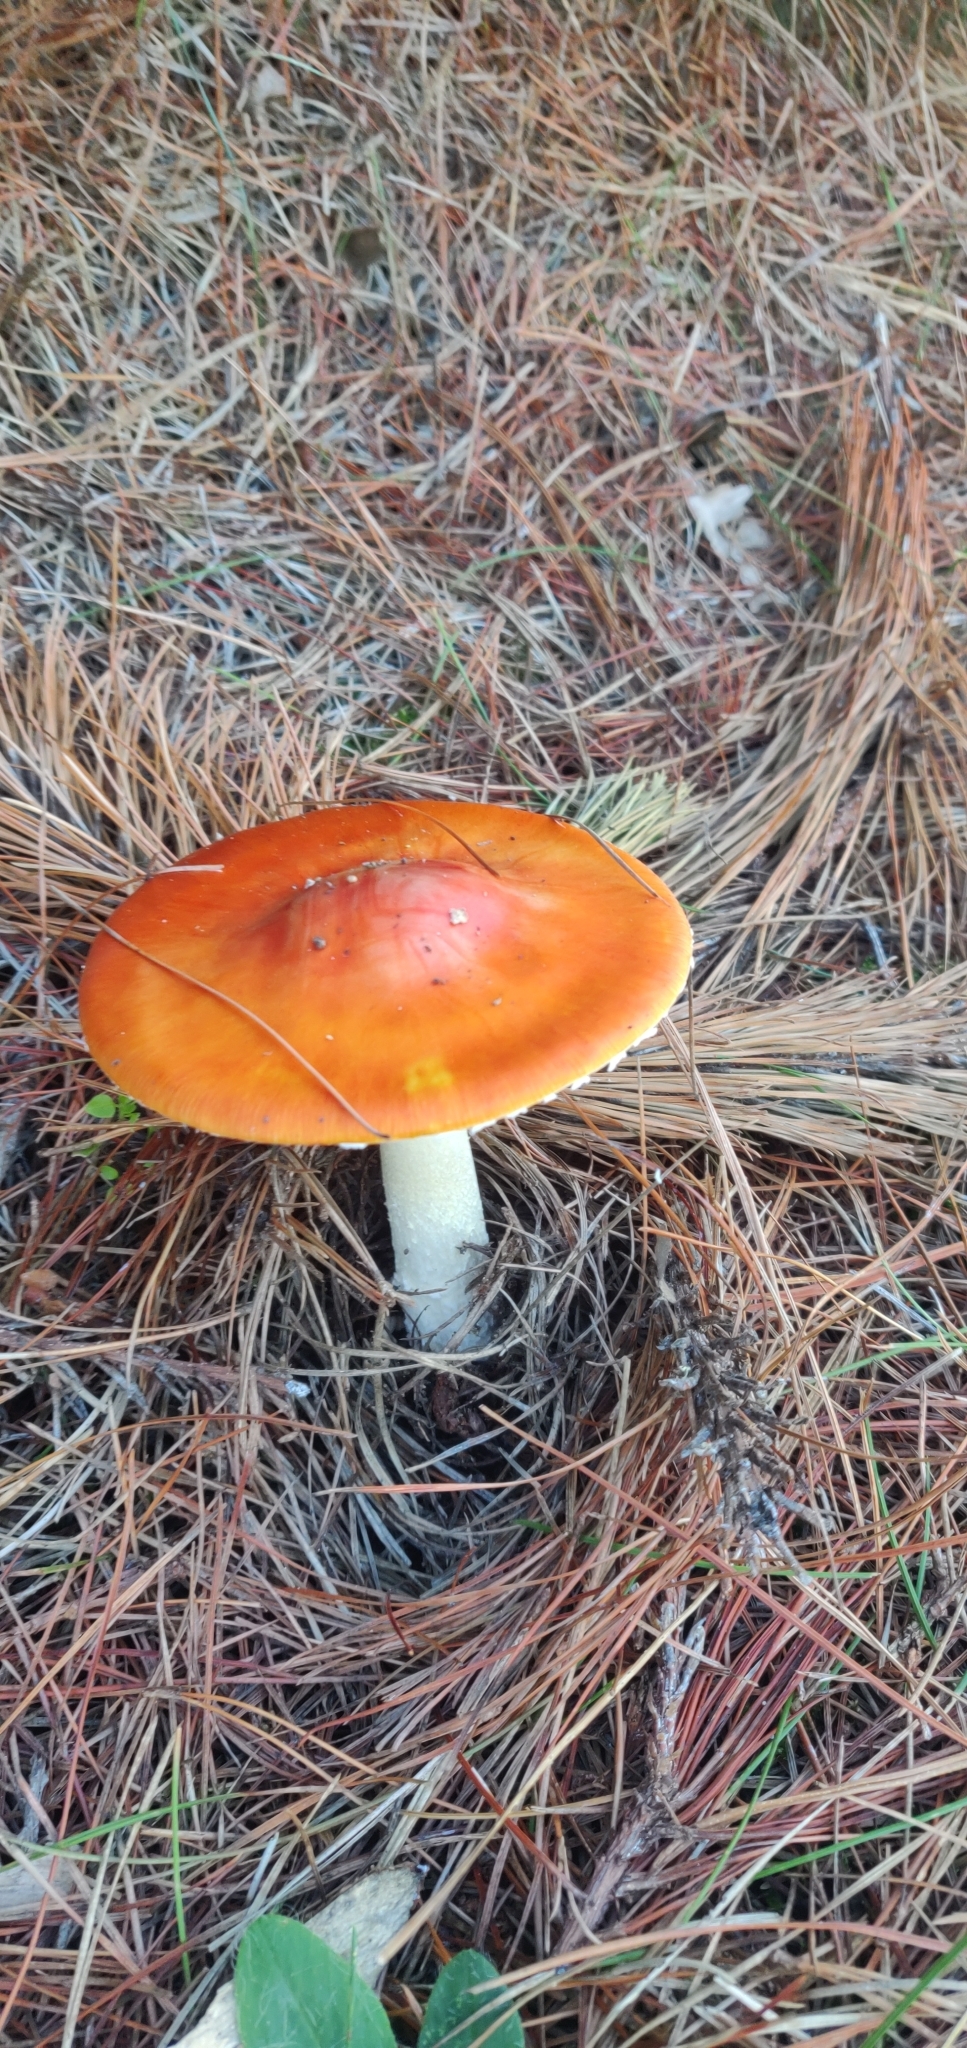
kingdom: Fungi
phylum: Basidiomycota
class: Agaricomycetes
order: Agaricales
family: Amanitaceae
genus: Amanita
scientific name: Amanita muscaria
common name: Fly agaric
